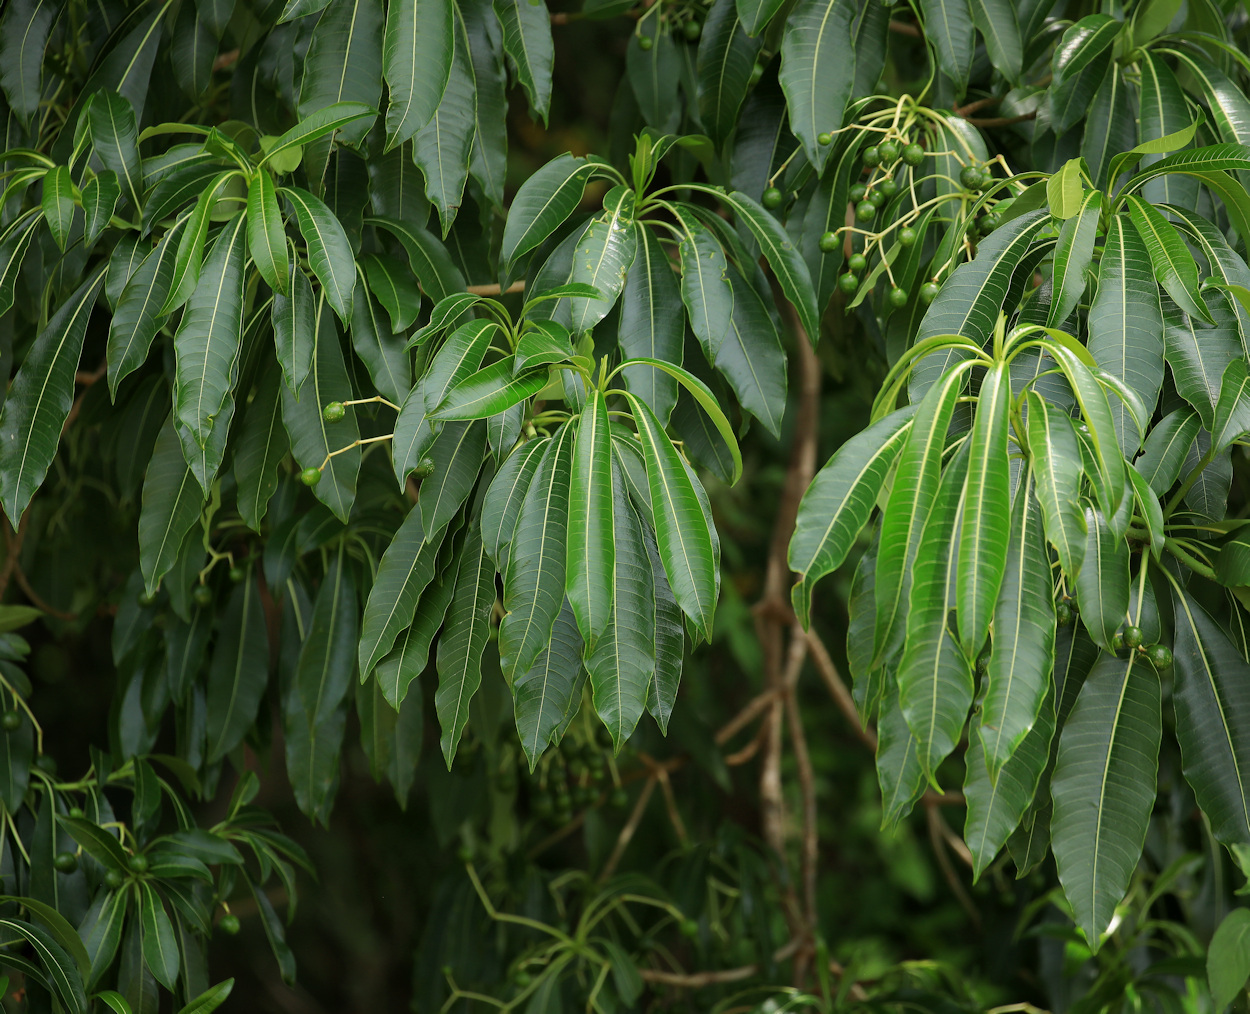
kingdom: Plantae
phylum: Tracheophyta
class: Magnoliopsida
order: Gentianales
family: Apocynaceae
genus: Rauvolfia
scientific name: Rauvolfia caffra
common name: Quininetree
